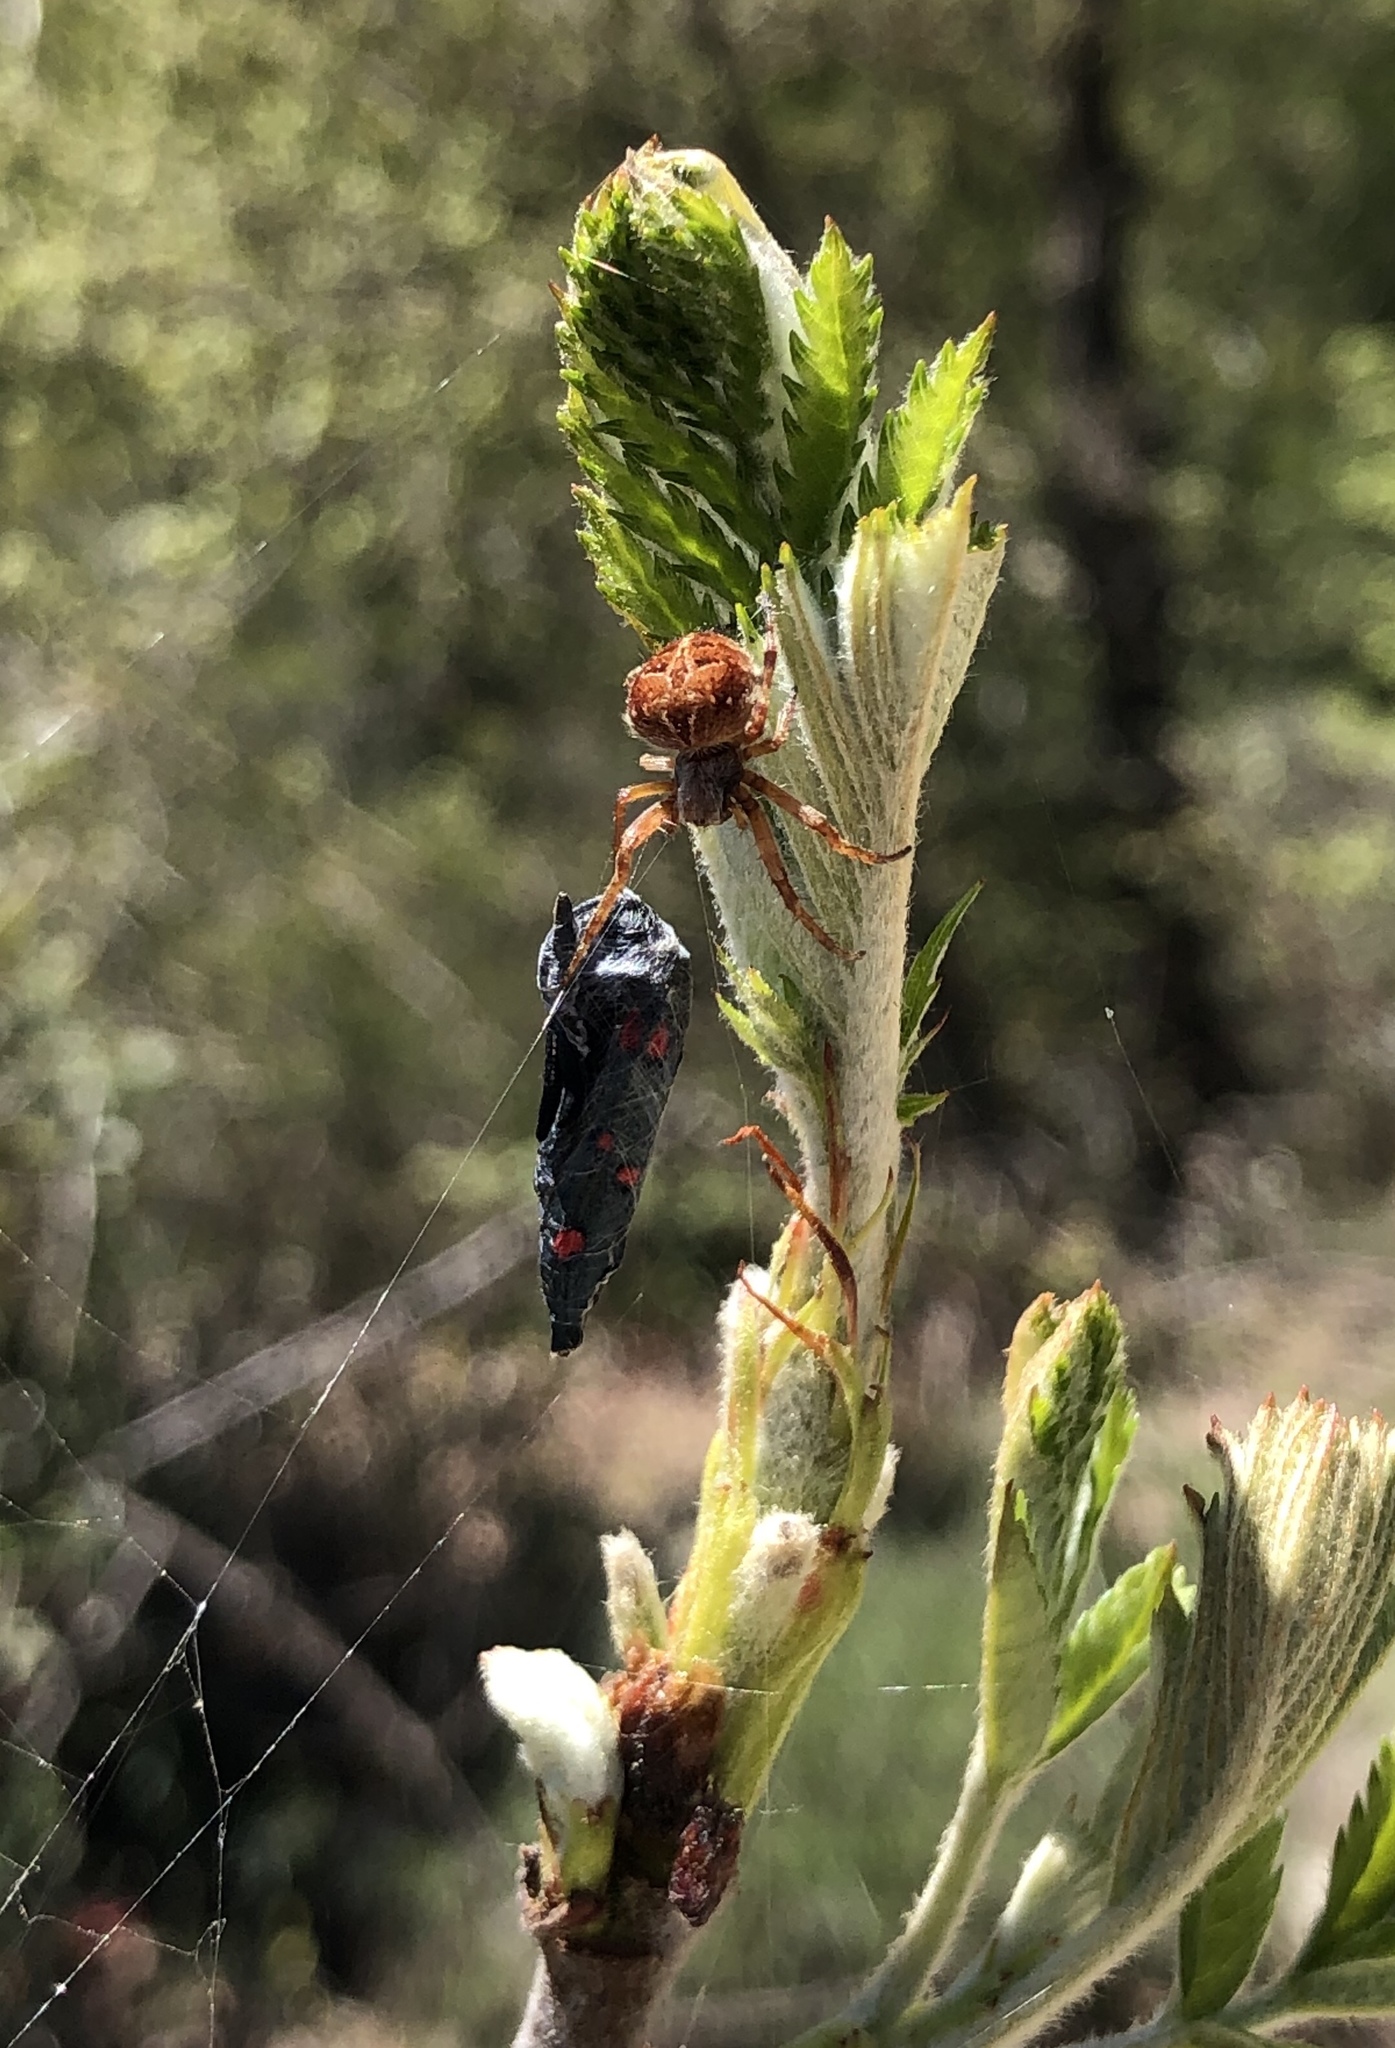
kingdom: Animalia
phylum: Arthropoda
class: Arachnida
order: Araneae
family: Araneidae
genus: Agalenatea
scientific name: Agalenatea redii
